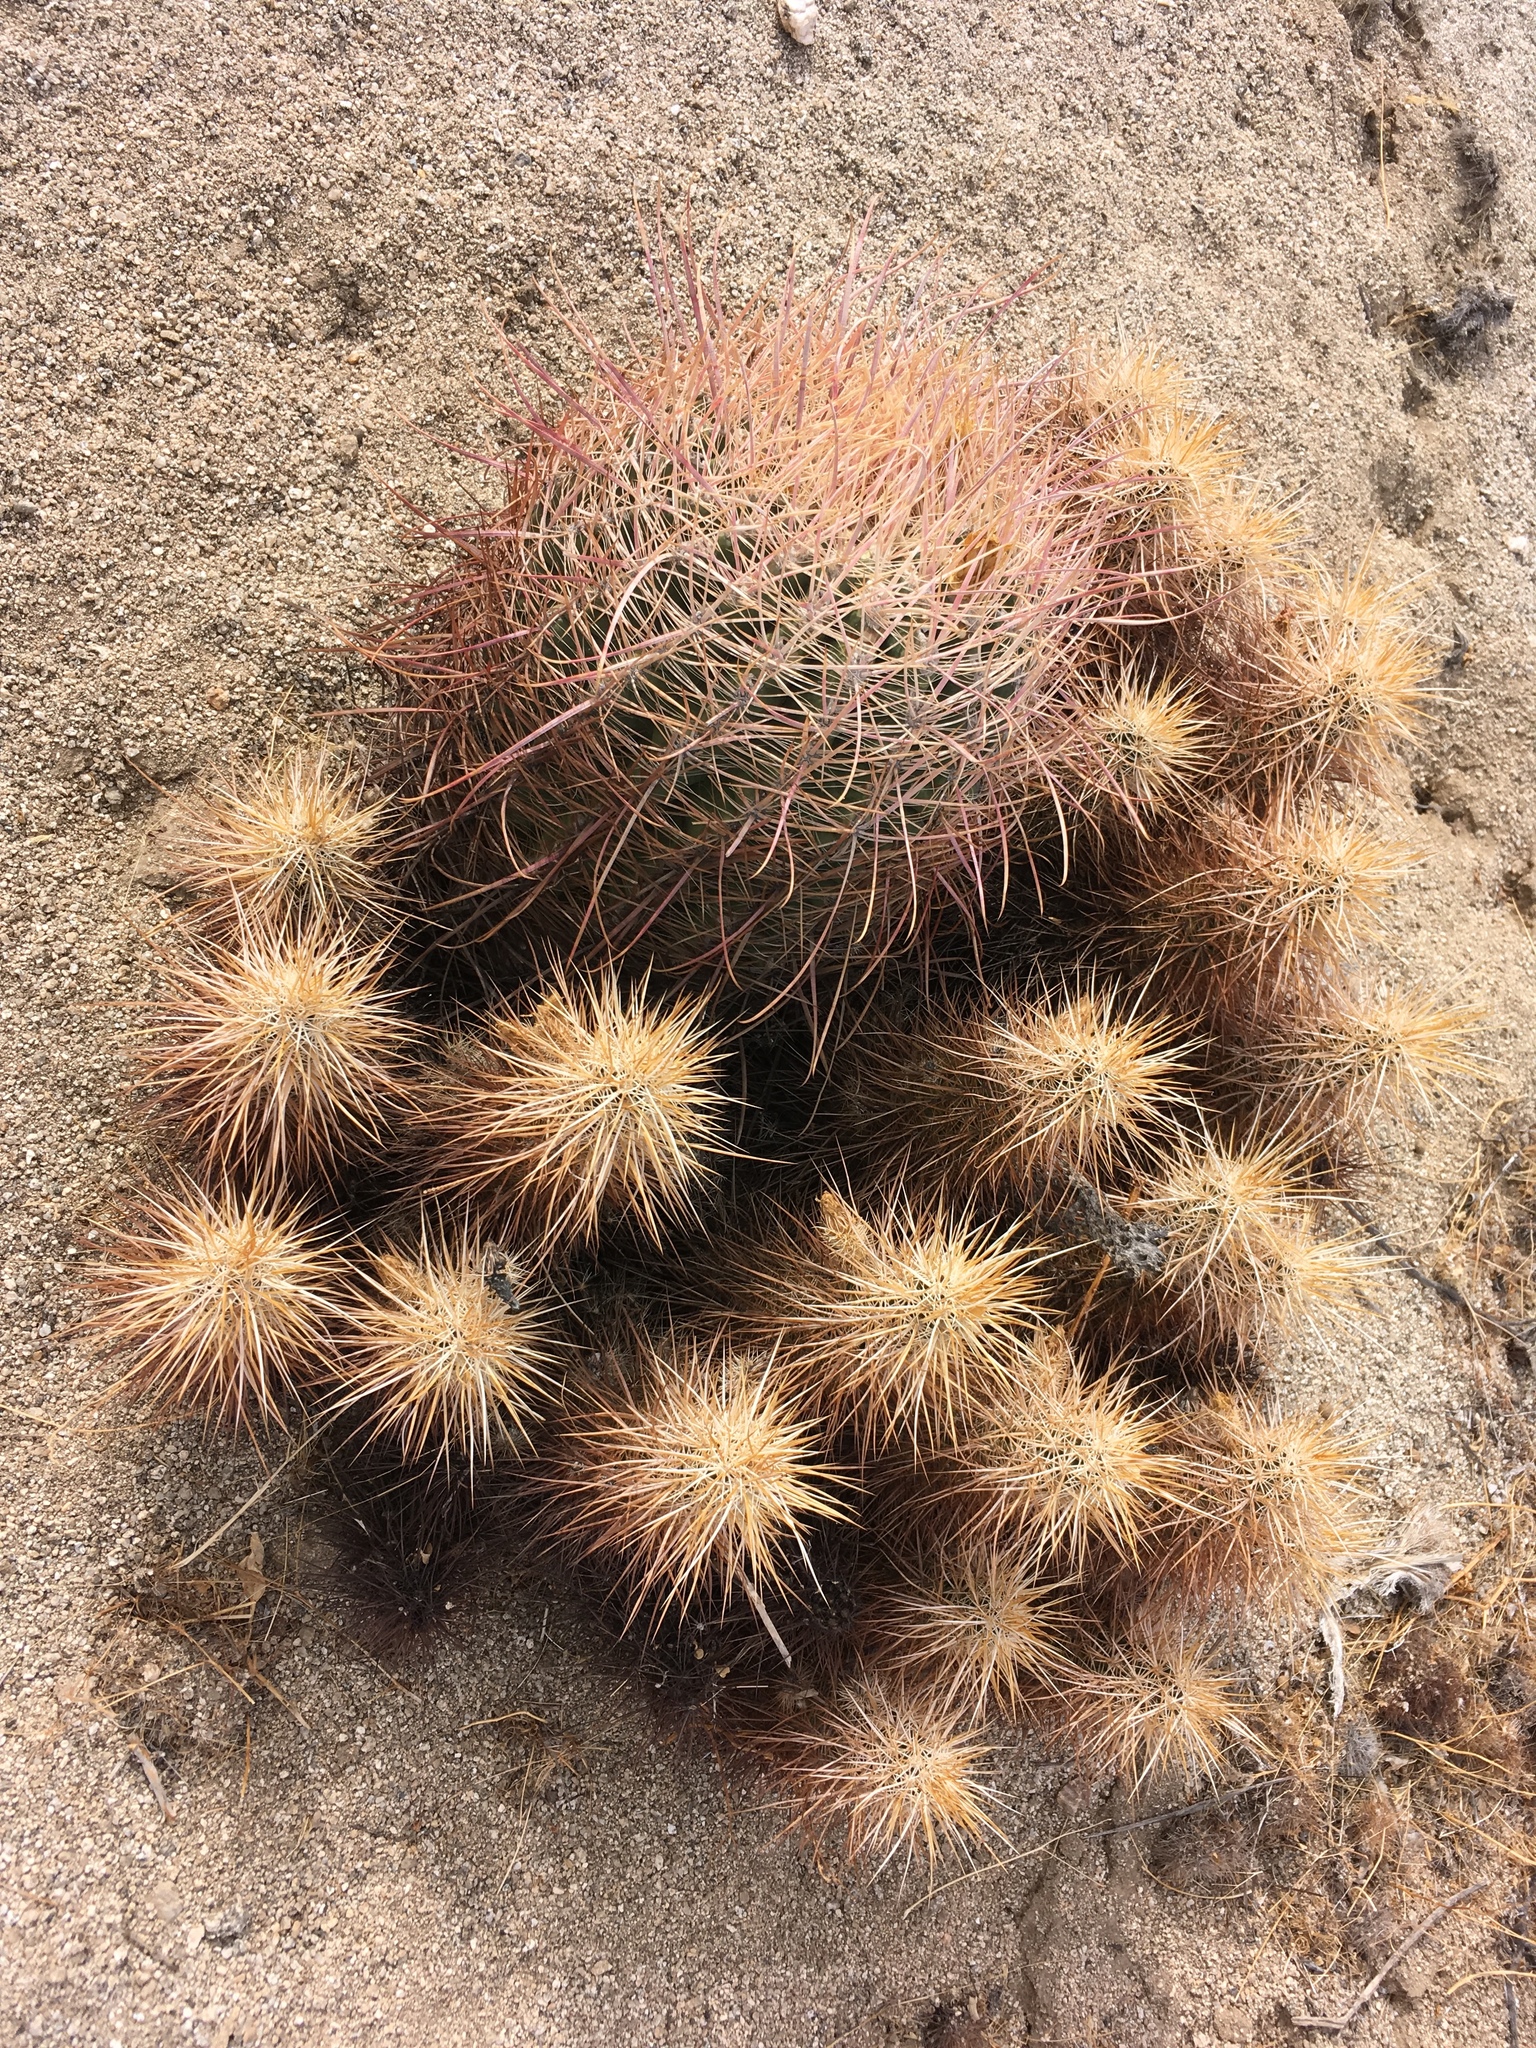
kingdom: Plantae
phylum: Tracheophyta
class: Magnoliopsida
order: Caryophyllales
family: Cactaceae
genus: Echinocereus
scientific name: Echinocereus engelmannii
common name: Engelmann's hedgehog cactus
